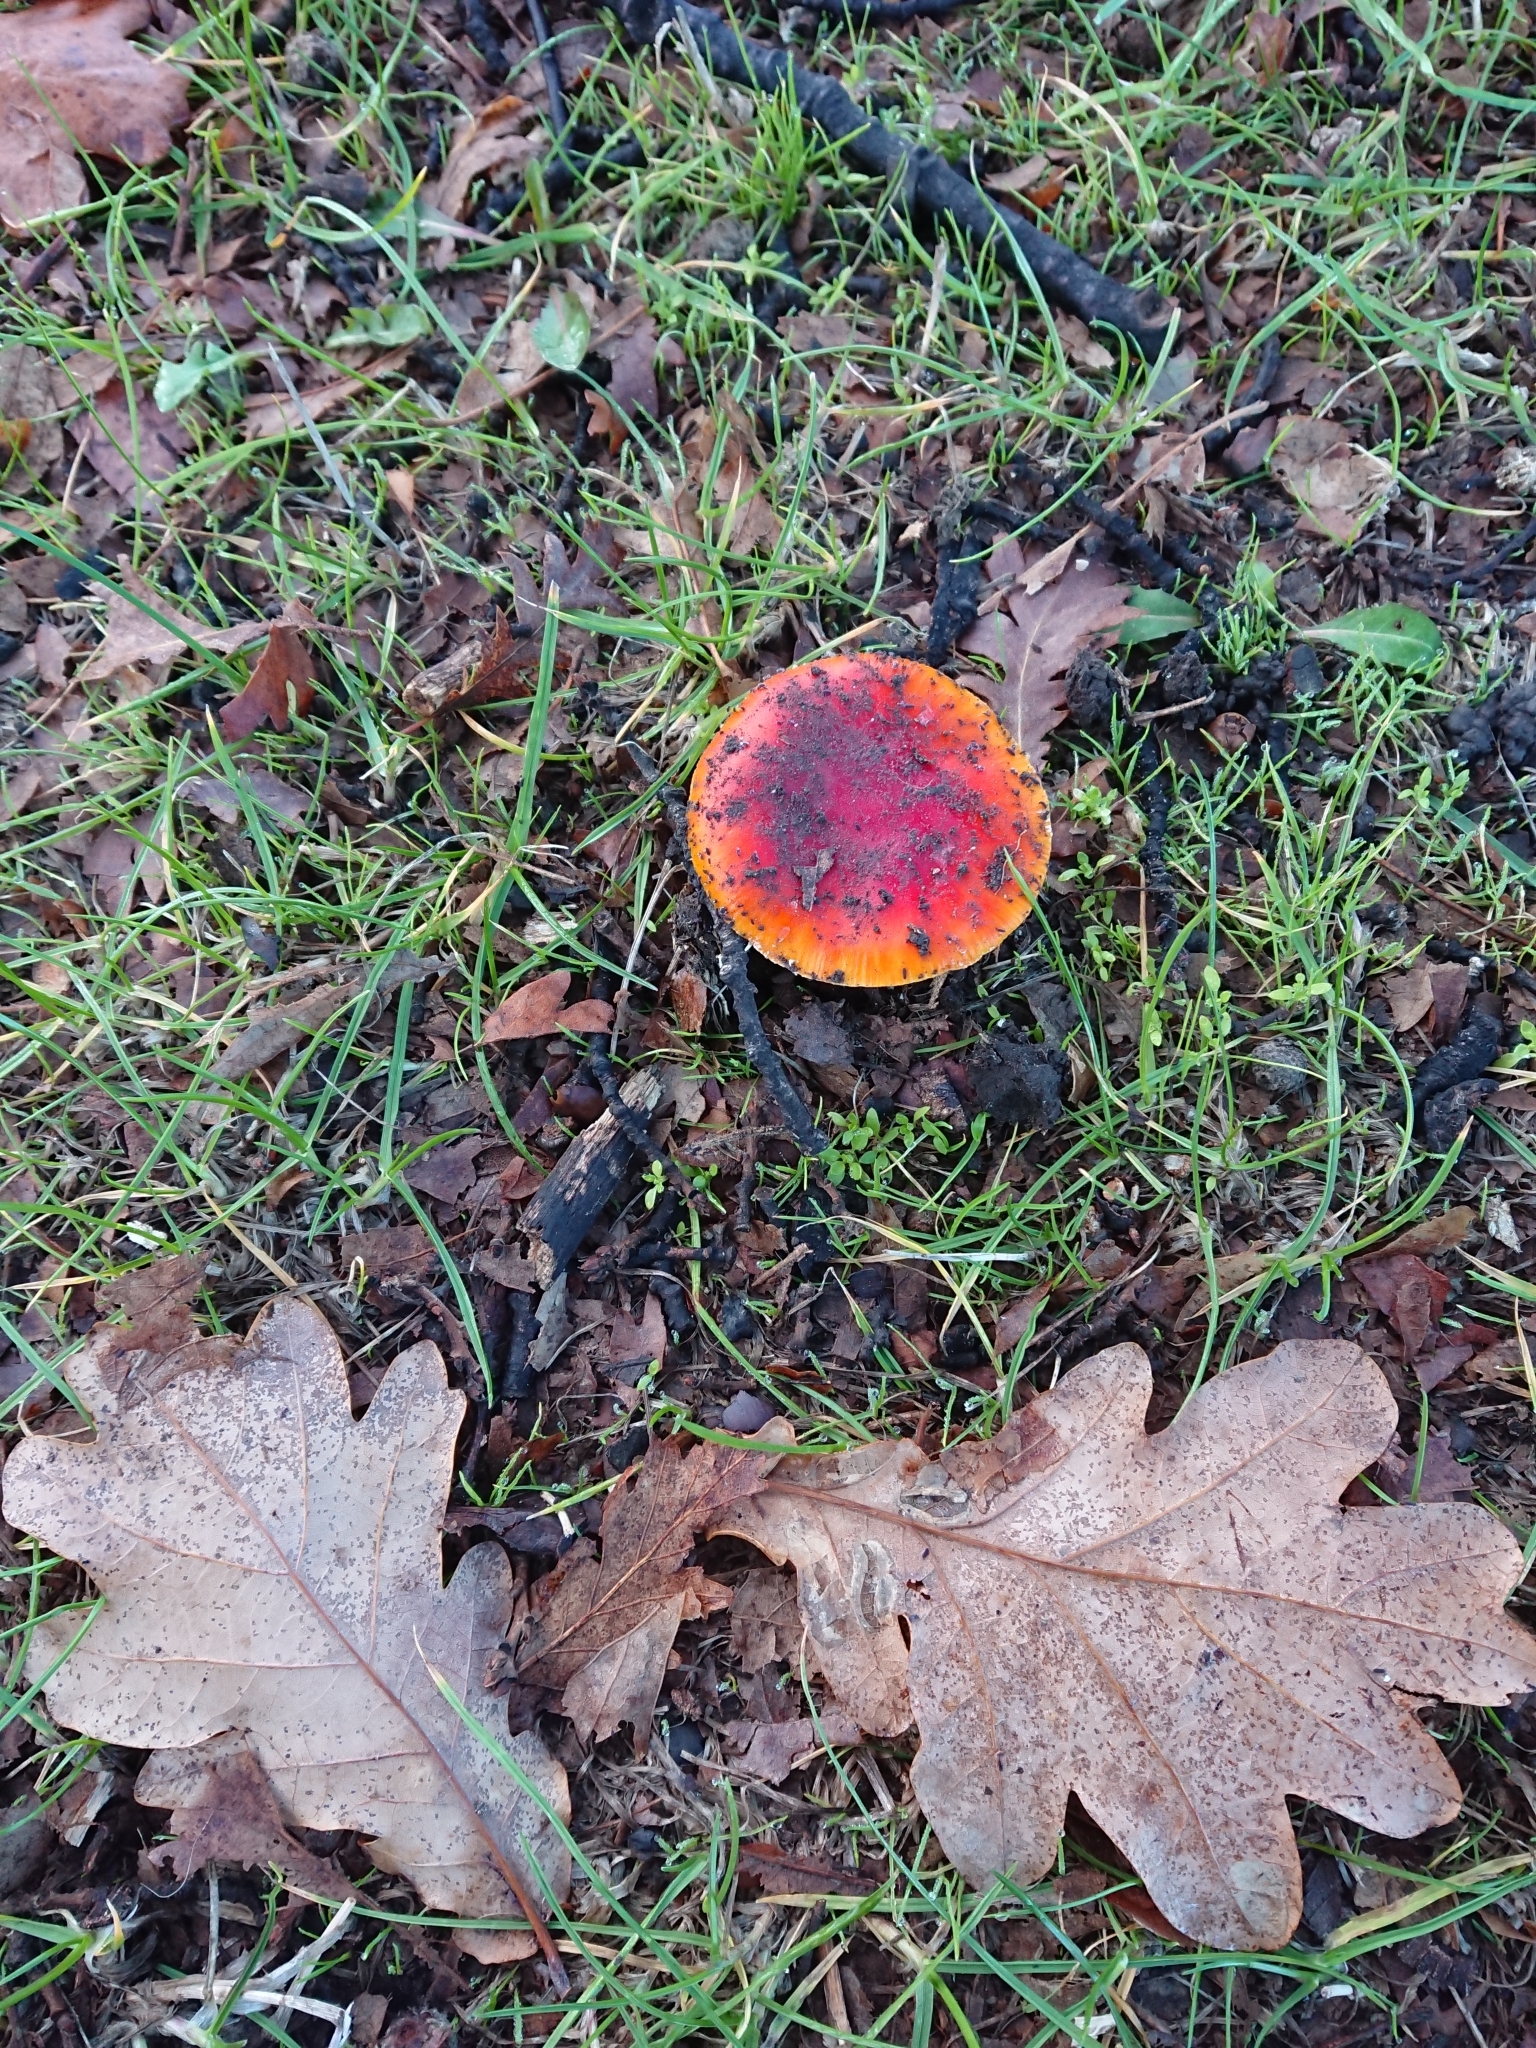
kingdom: Fungi
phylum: Basidiomycota
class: Agaricomycetes
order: Agaricales
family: Amanitaceae
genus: Amanita
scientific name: Amanita muscaria
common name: Fly agaric
